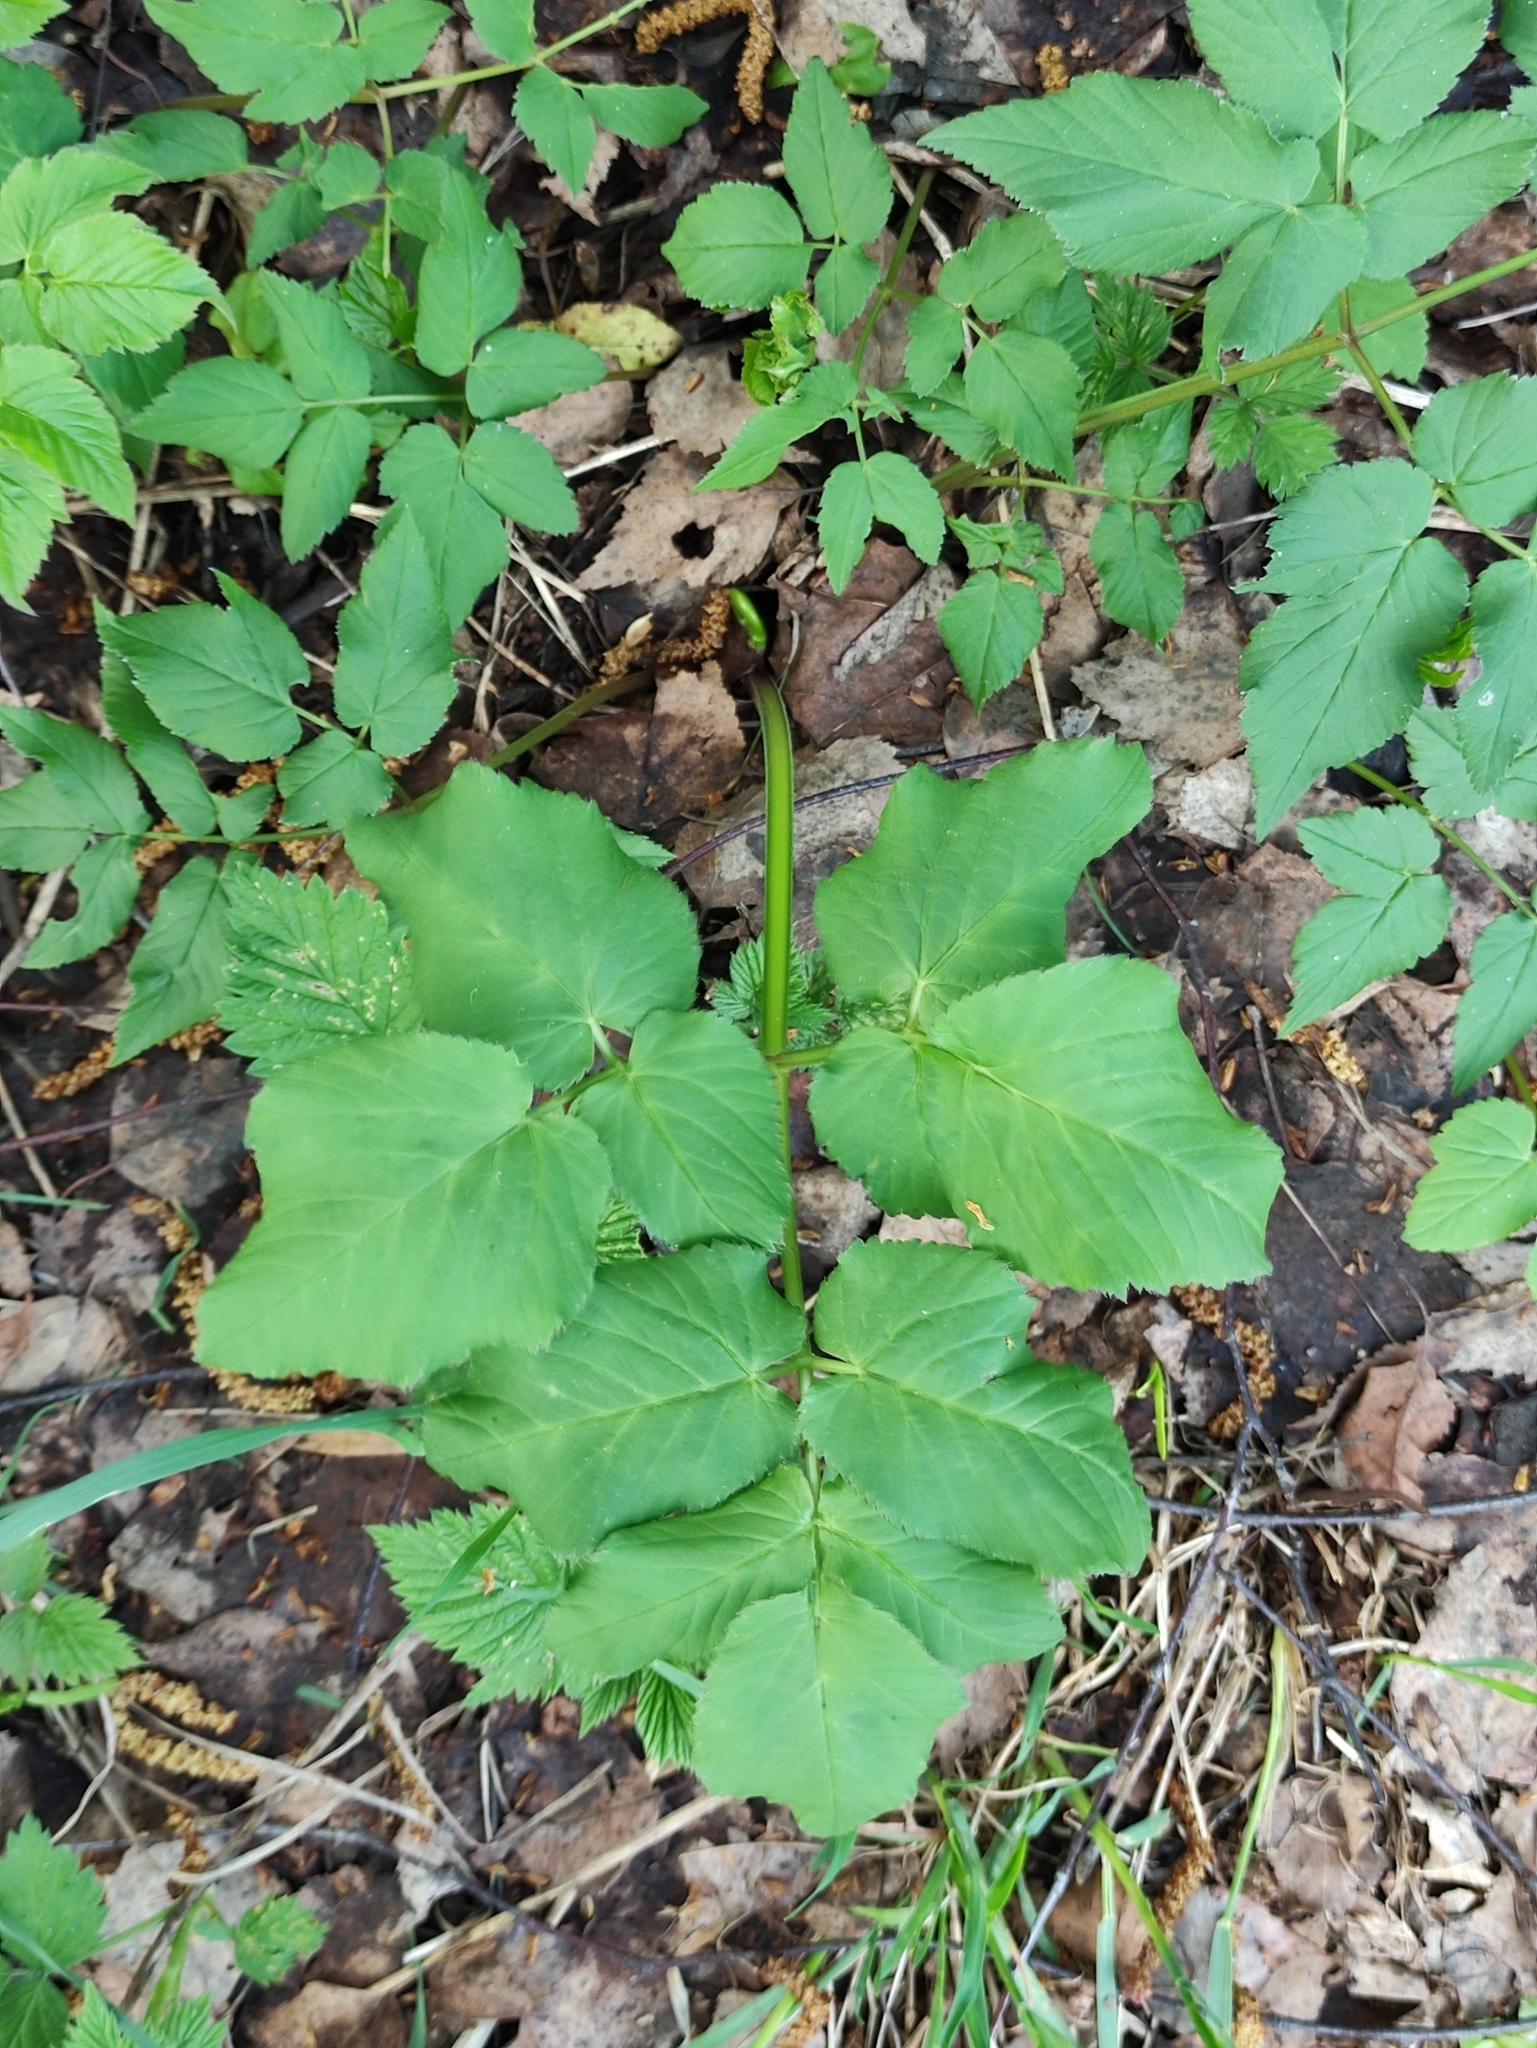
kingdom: Plantae
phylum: Tracheophyta
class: Magnoliopsida
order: Apiales
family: Apiaceae
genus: Aegopodium
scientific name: Aegopodium podagraria
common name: Ground-elder
